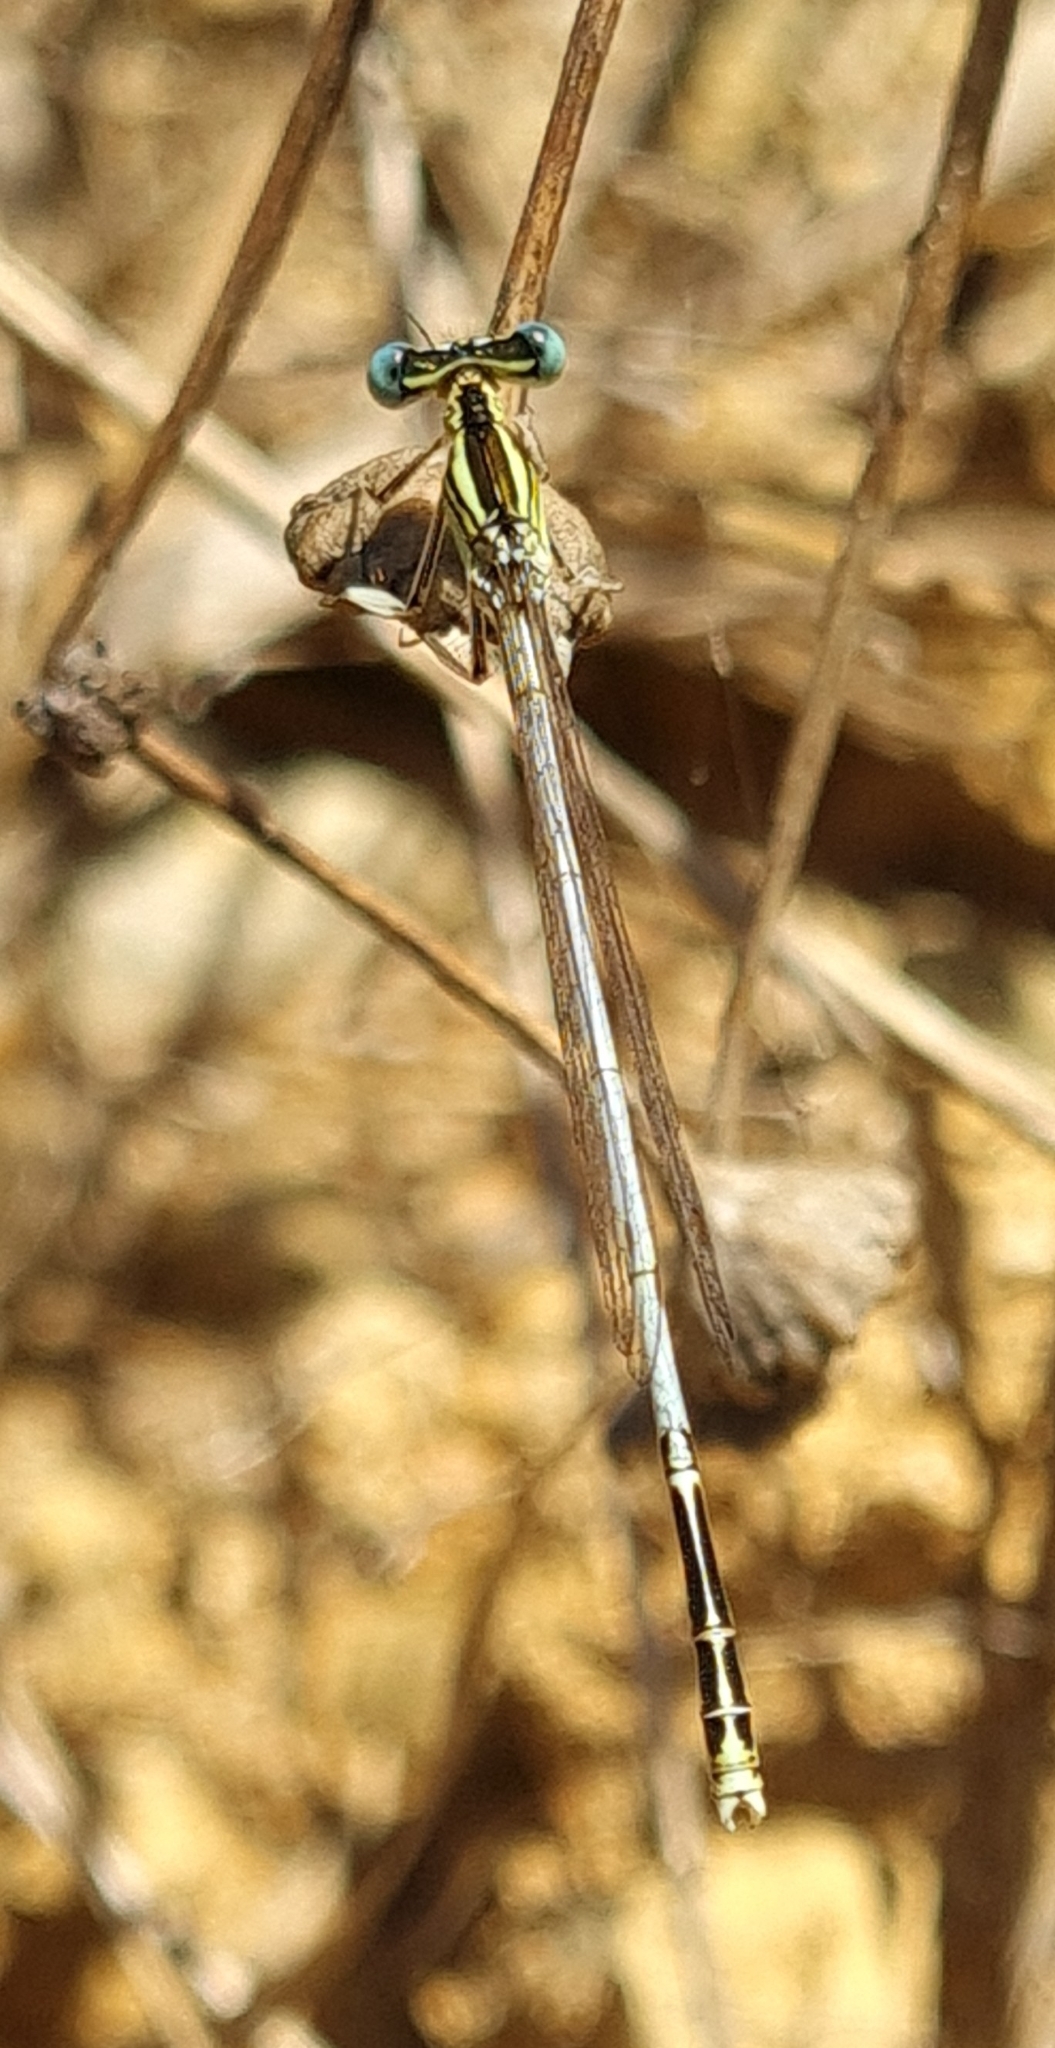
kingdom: Animalia
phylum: Arthropoda
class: Insecta
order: Odonata
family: Platycnemididae
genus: Platycnemis
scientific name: Platycnemis latipes
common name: White featherleg
